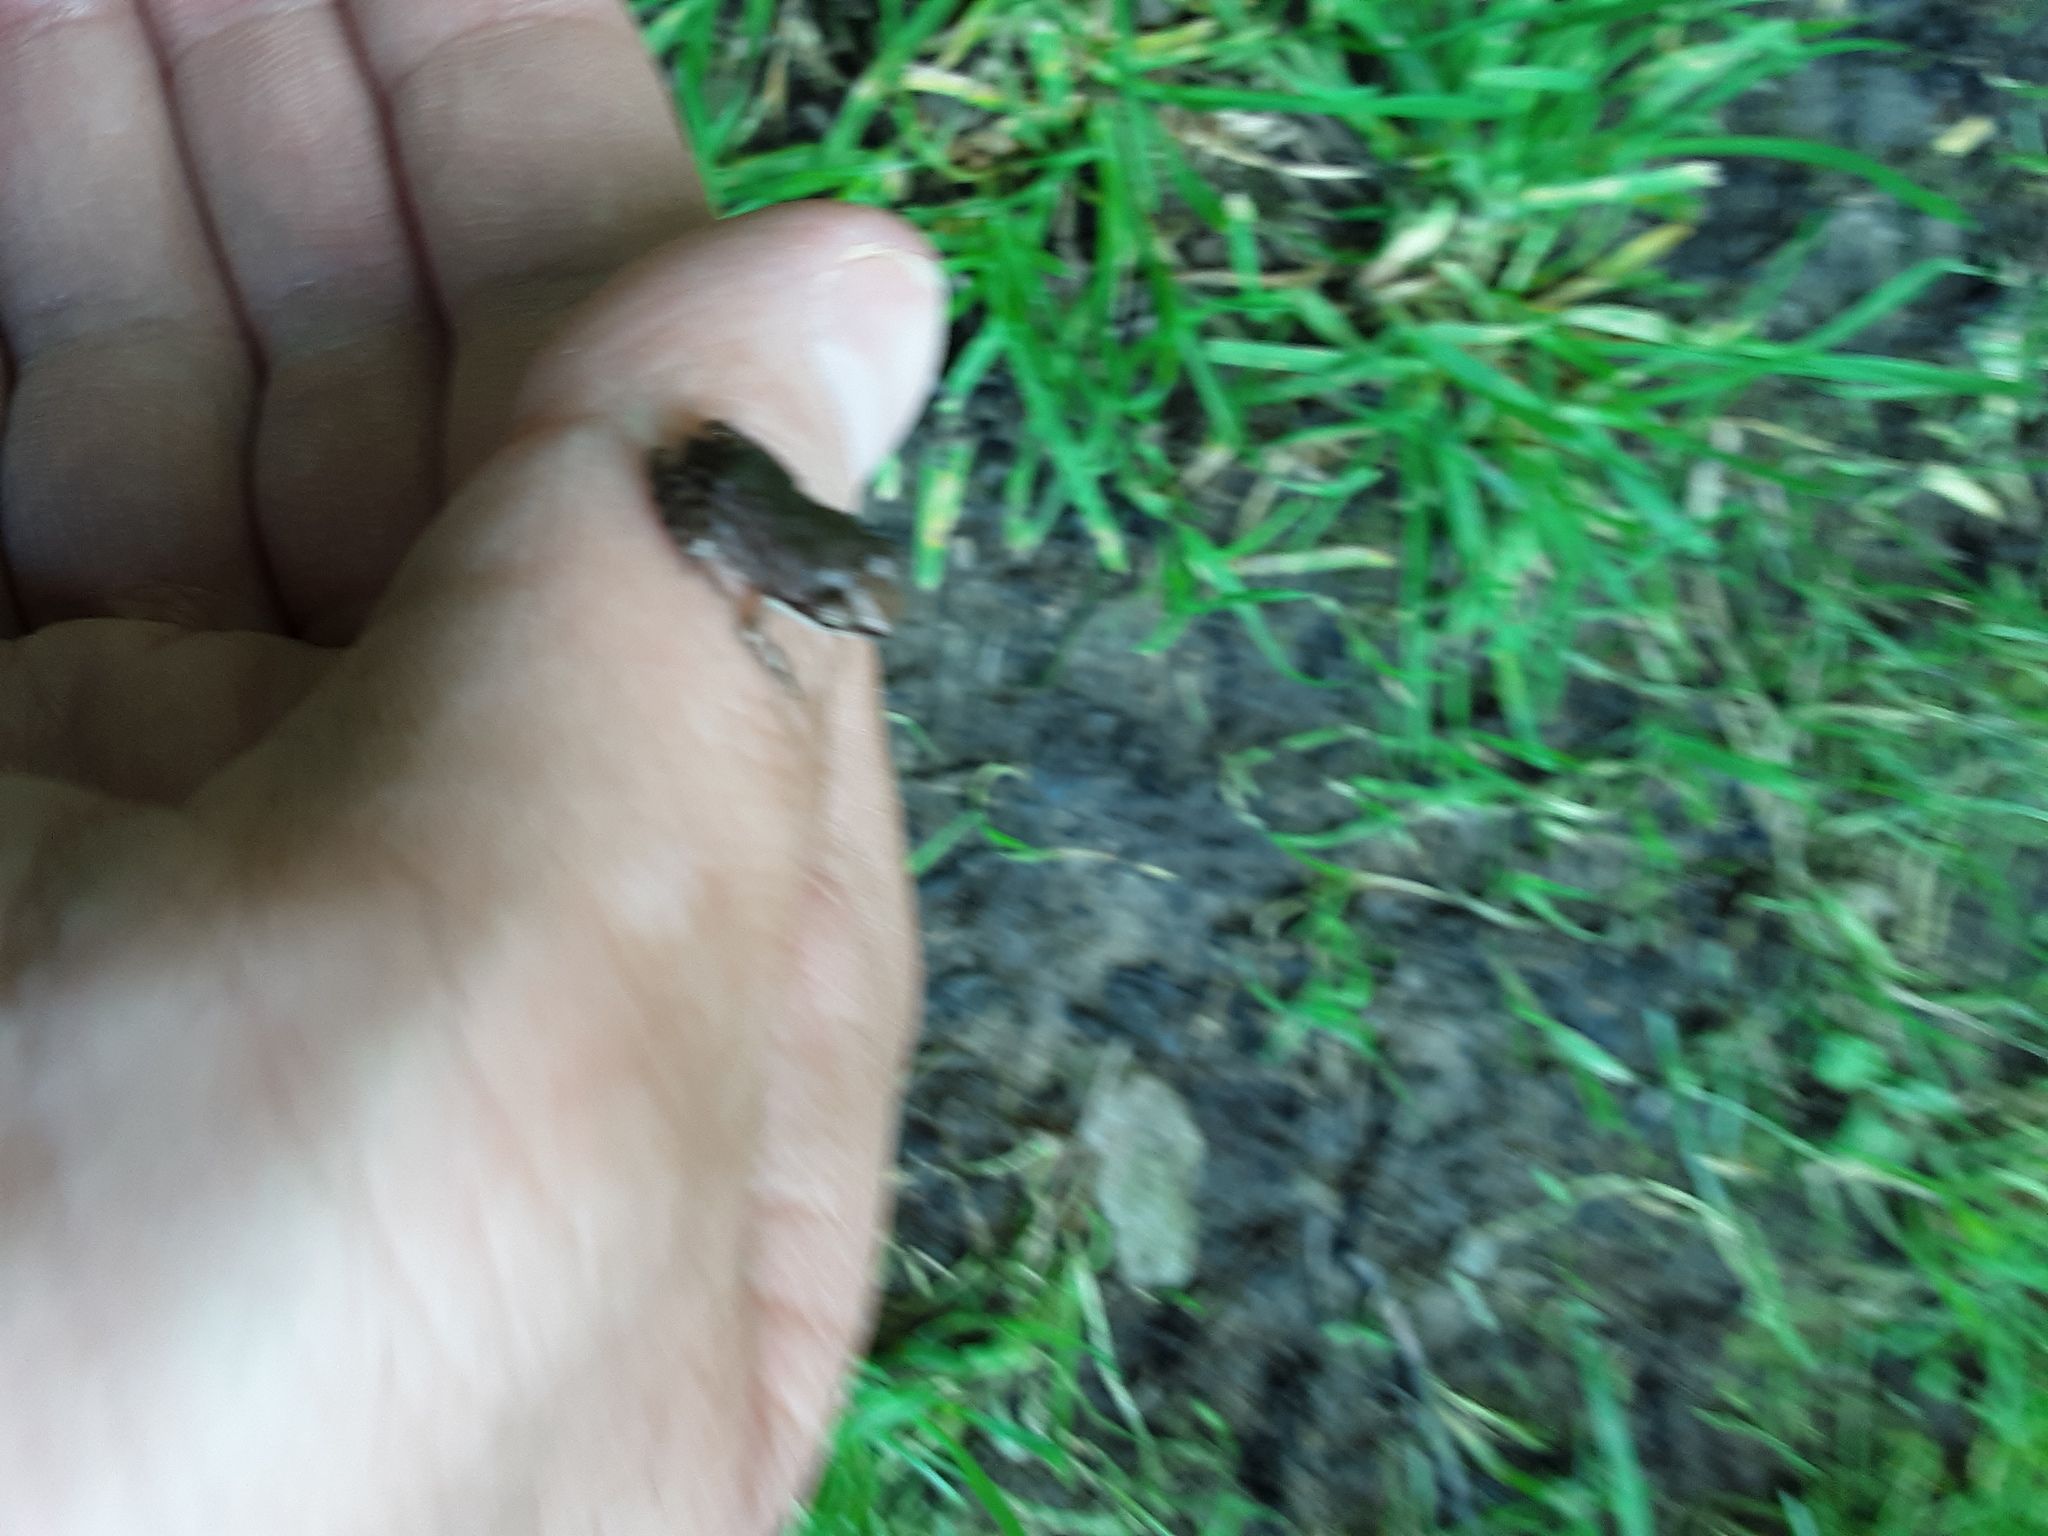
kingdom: Animalia
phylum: Chordata
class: Amphibia
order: Anura
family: Ranidae
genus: Lithobates
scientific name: Lithobates sylvaticus
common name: Wood frog
